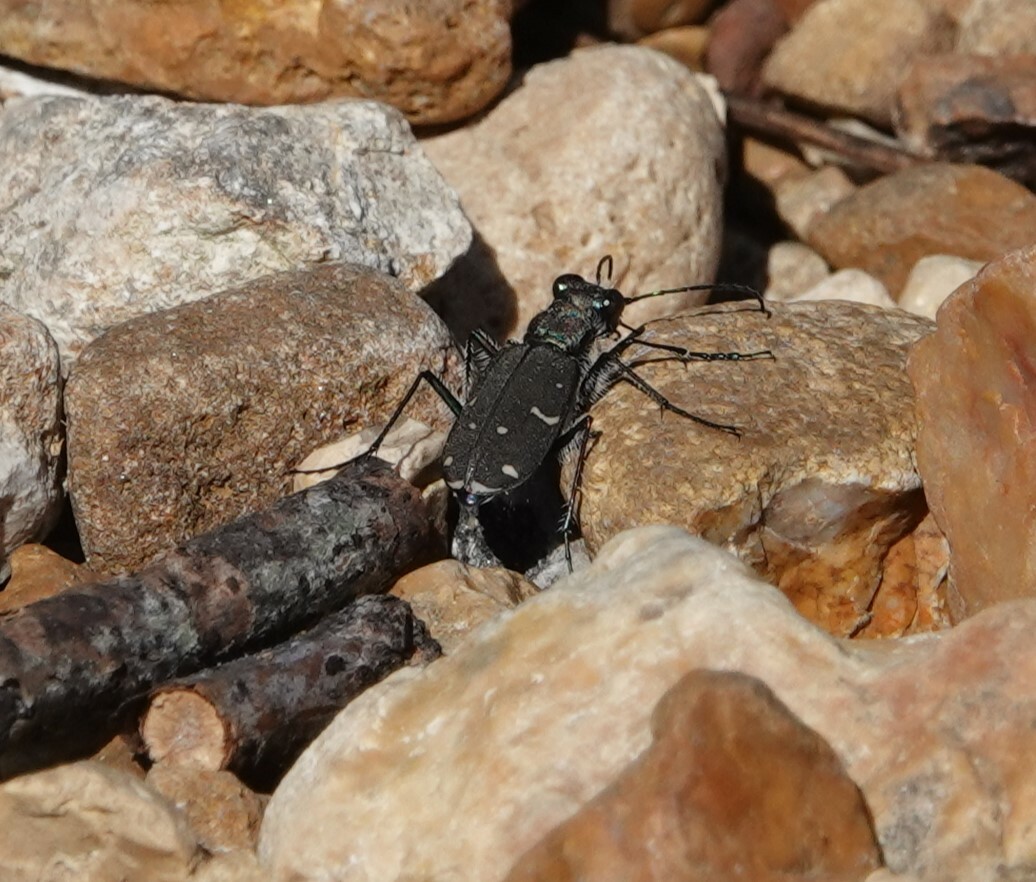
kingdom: Animalia
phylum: Arthropoda
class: Insecta
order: Coleoptera
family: Carabidae
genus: Cicindela
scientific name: Cicindela duodecimguttata
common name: Twelve-spotted tiger beetle
